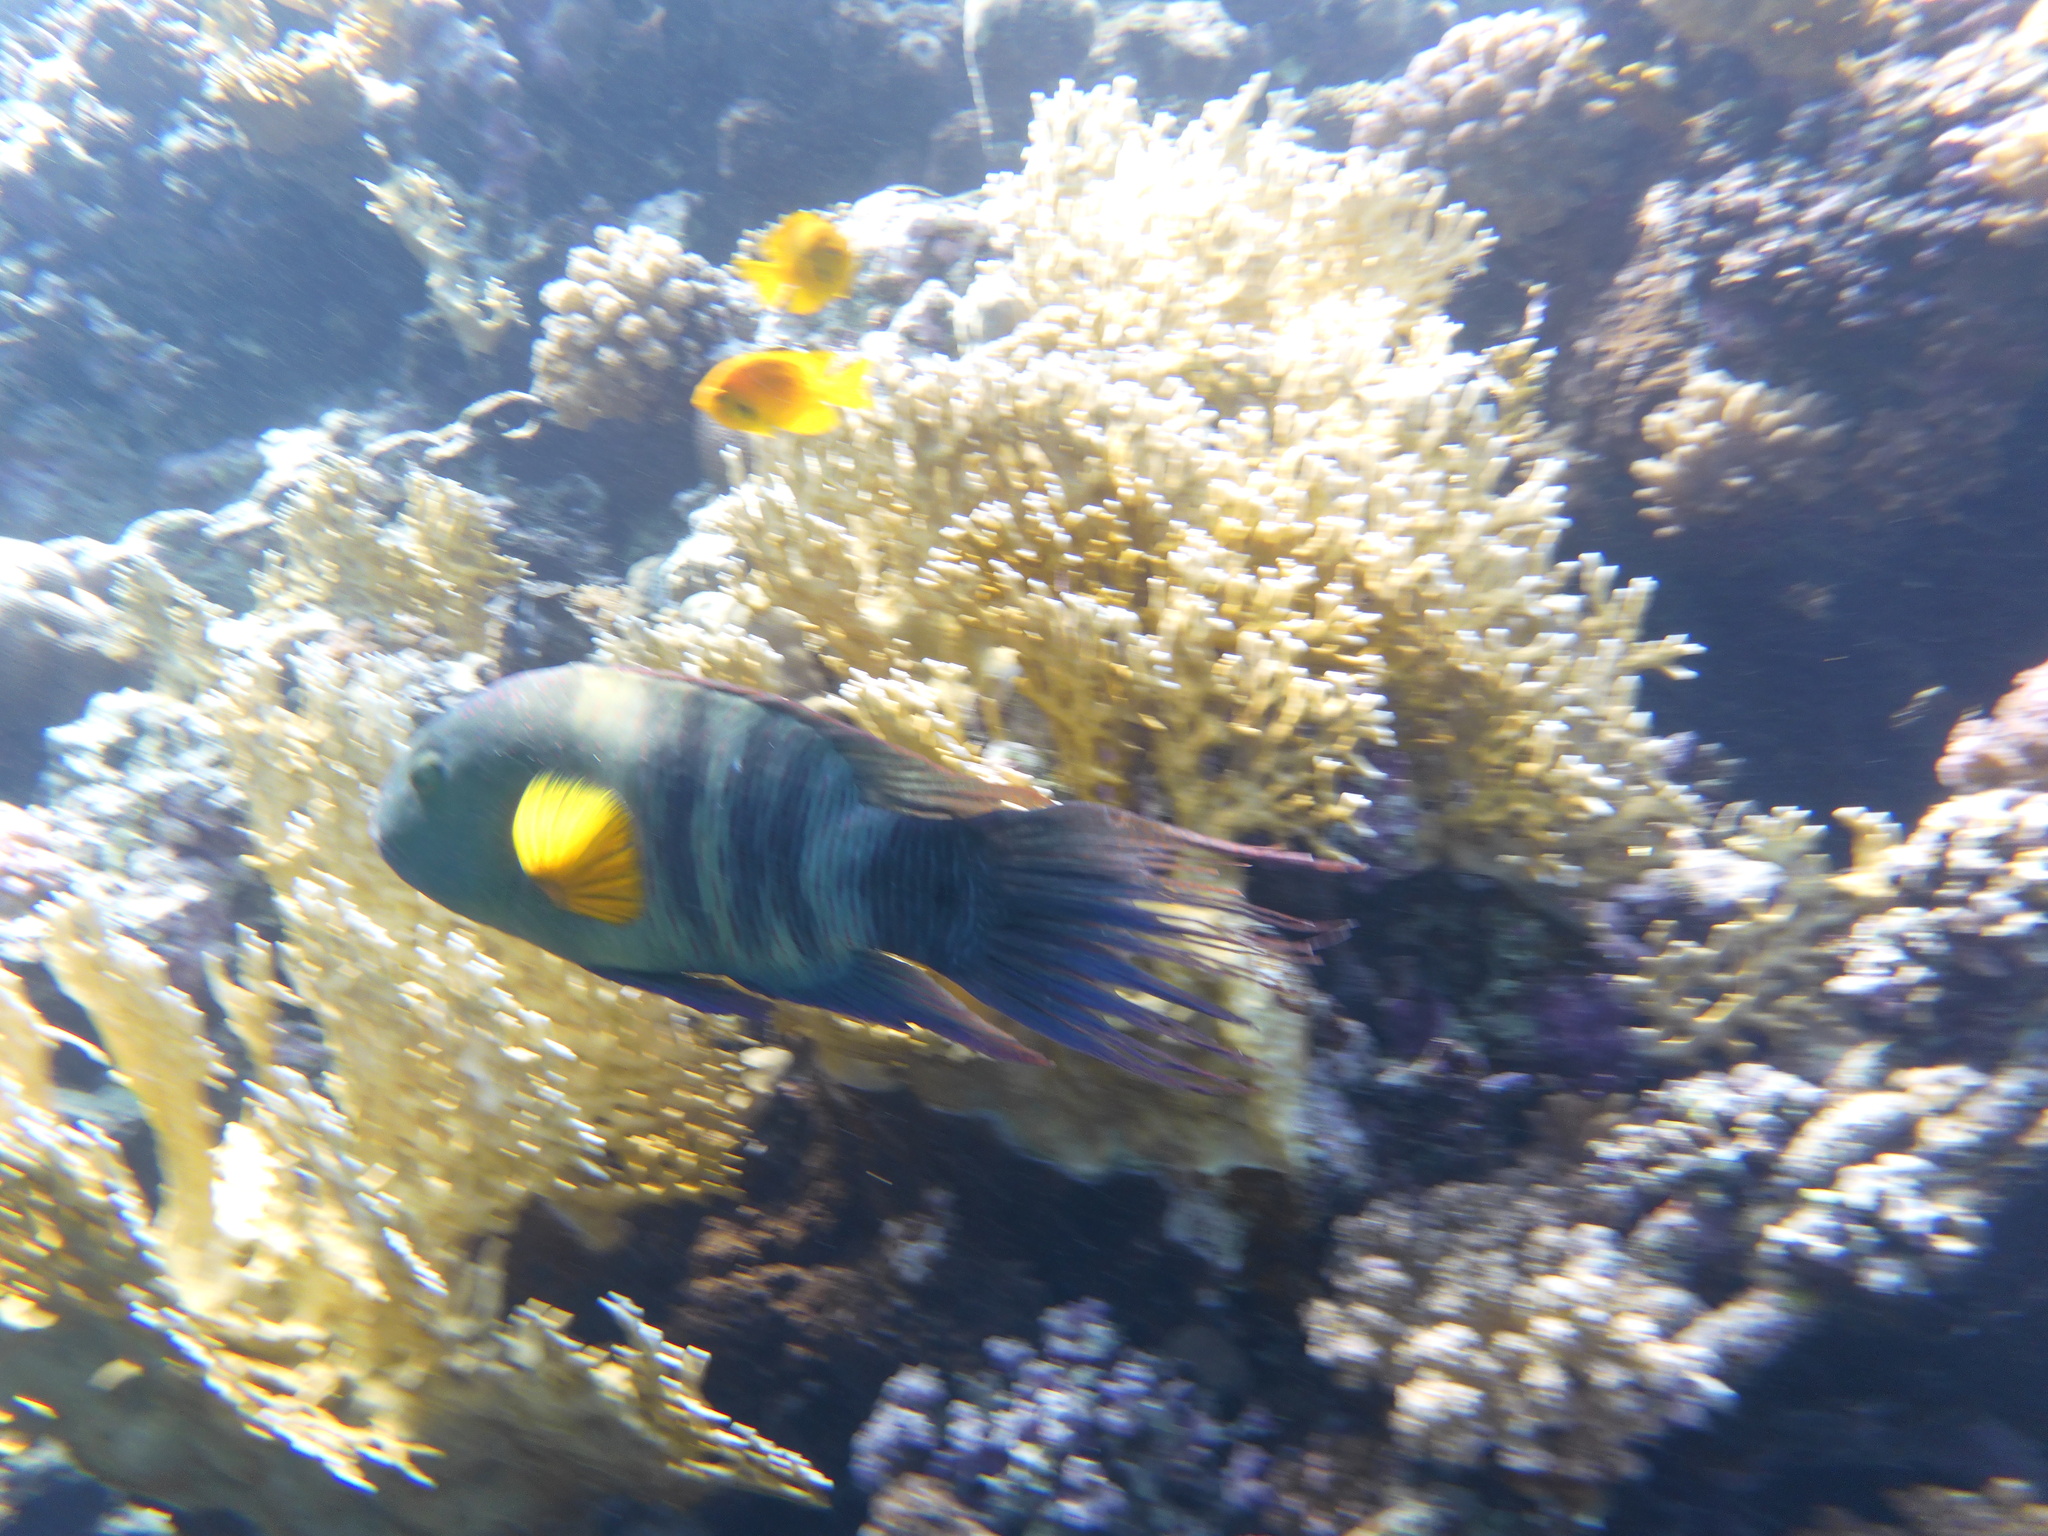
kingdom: Animalia
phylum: Chordata
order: Perciformes
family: Labridae
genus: Cheilinus
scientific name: Cheilinus lunulatus
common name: Broomtail wrasse
